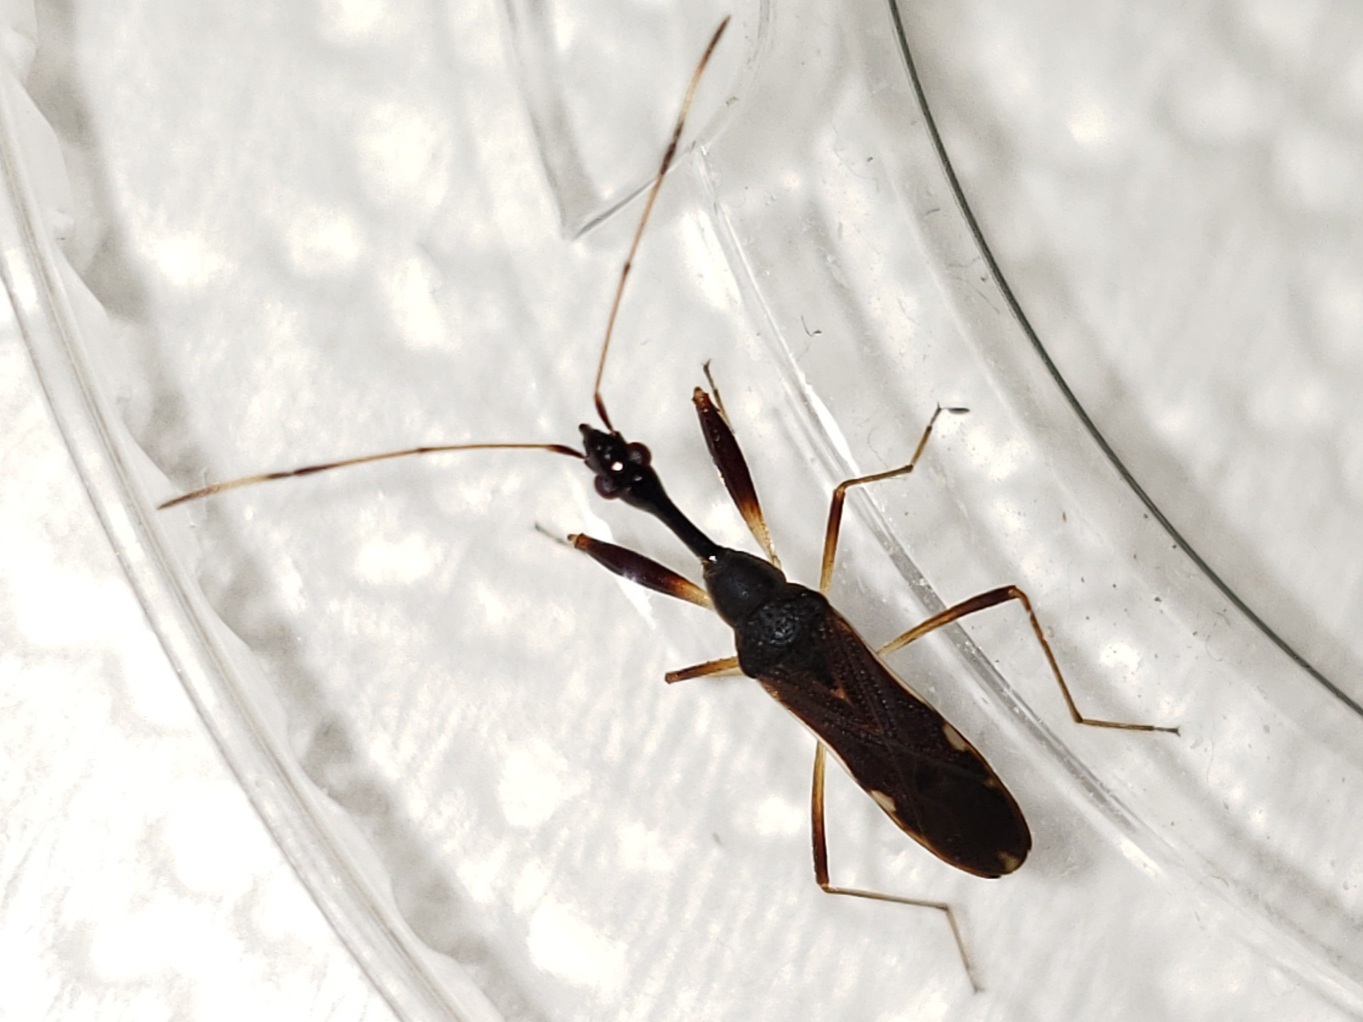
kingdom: Animalia
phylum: Arthropoda
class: Insecta
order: Hemiptera
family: Rhyparochromidae
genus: Myodocha
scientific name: Myodocha annulicornis
